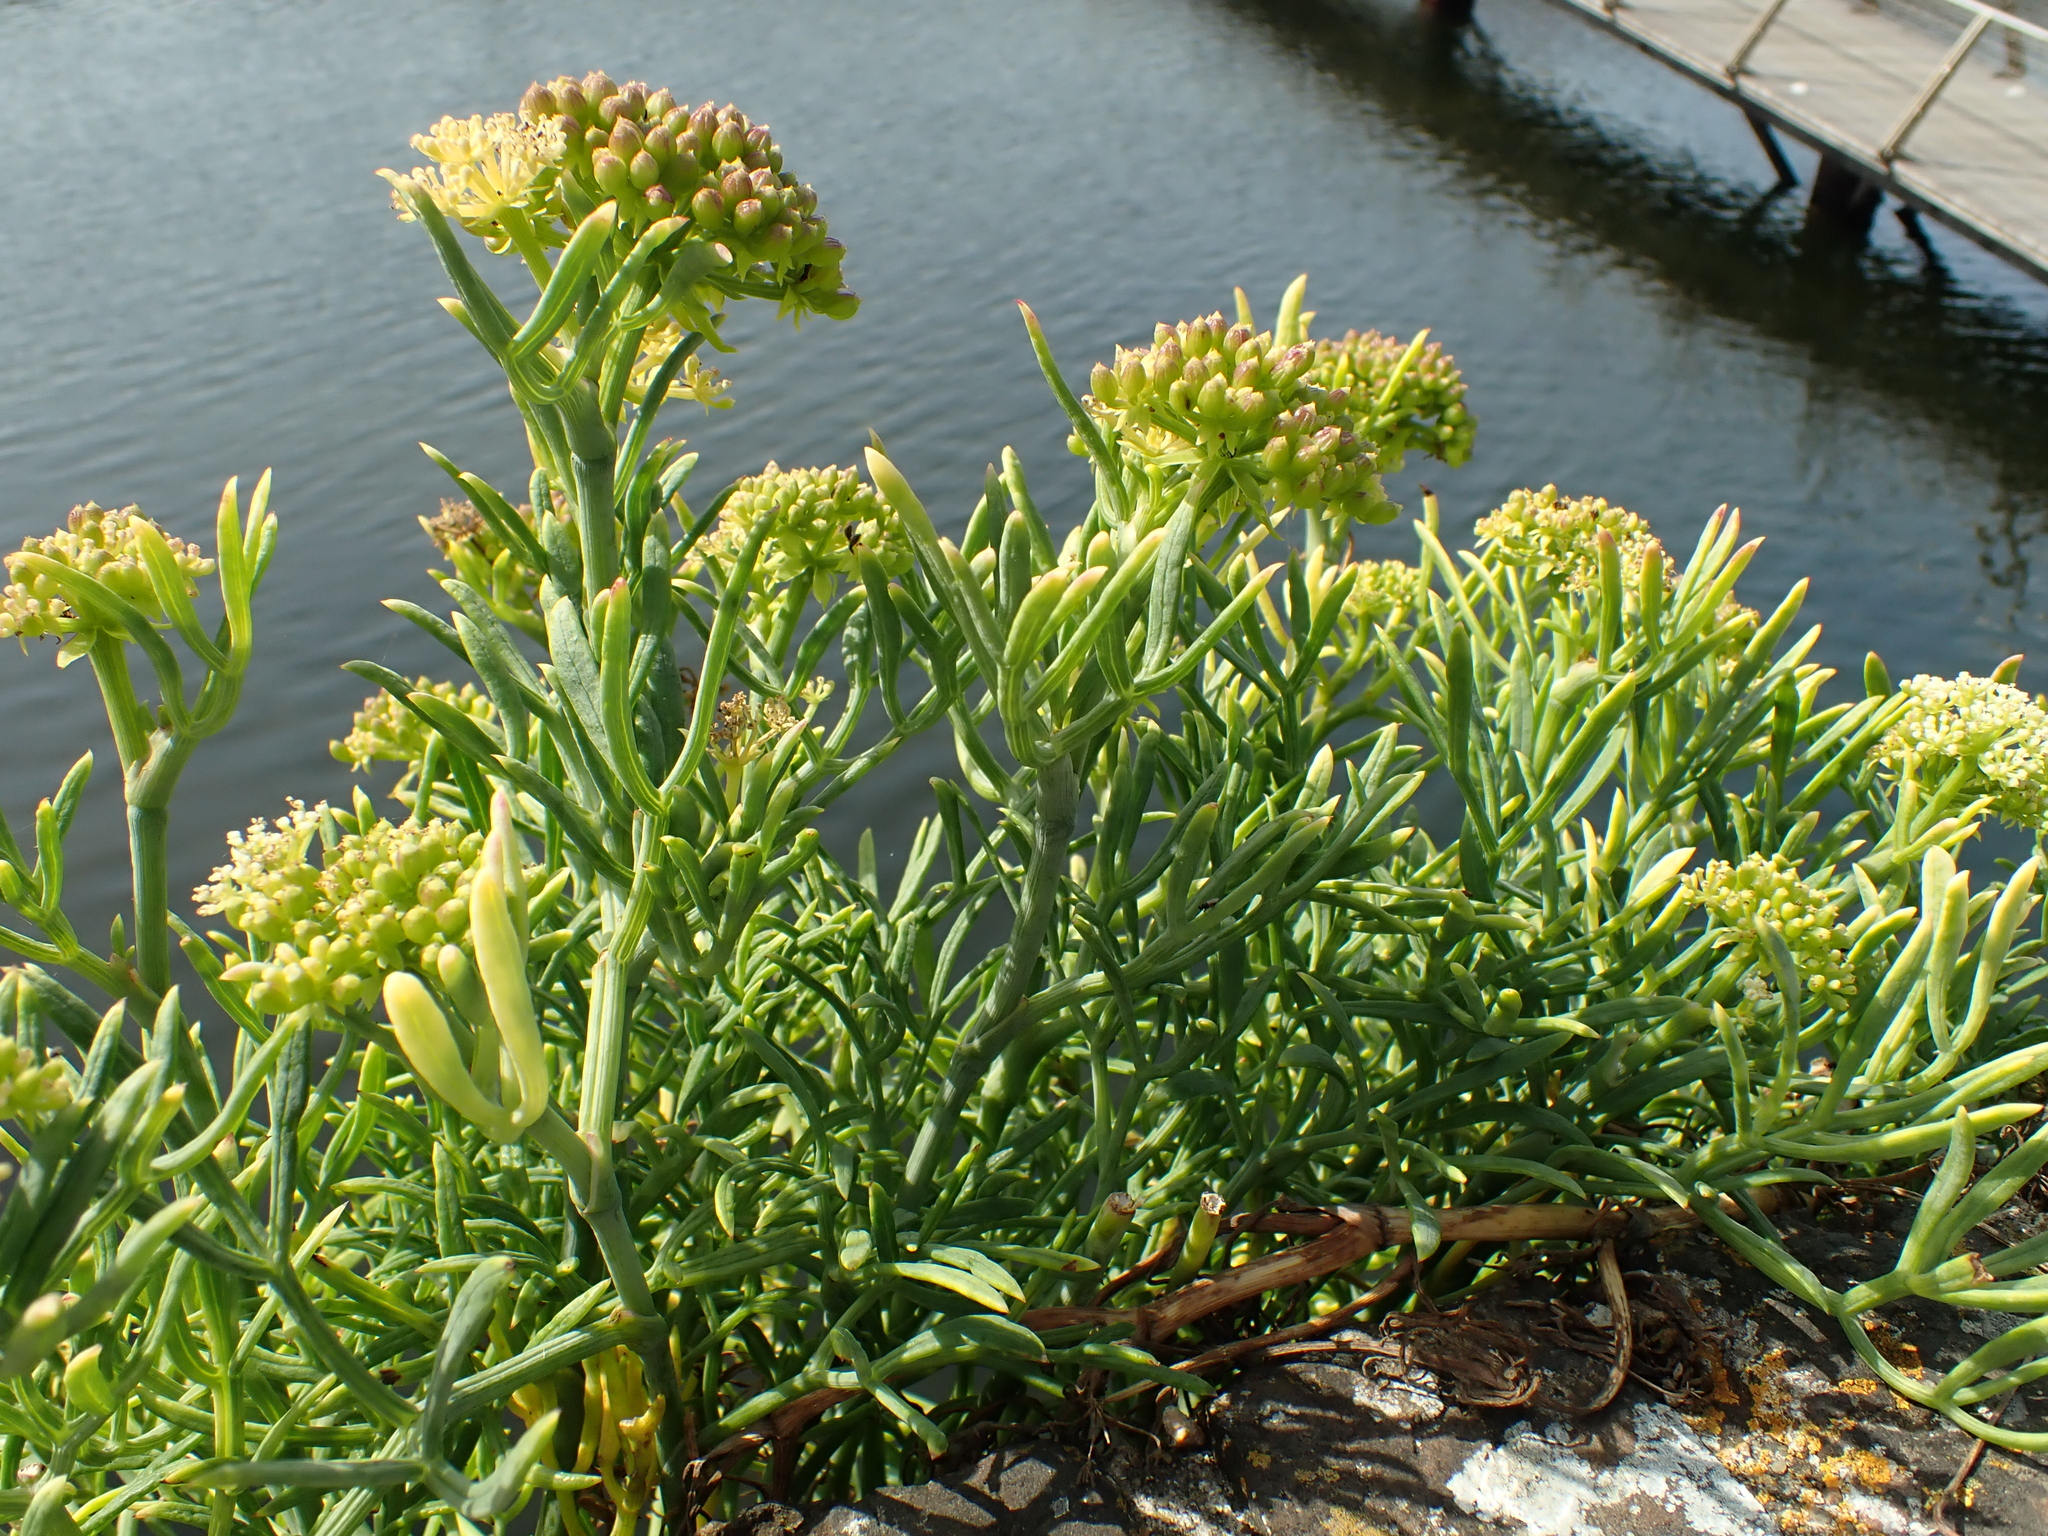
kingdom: Plantae
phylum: Tracheophyta
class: Magnoliopsida
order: Apiales
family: Apiaceae
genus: Crithmum
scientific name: Crithmum maritimum
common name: Rock samphire
